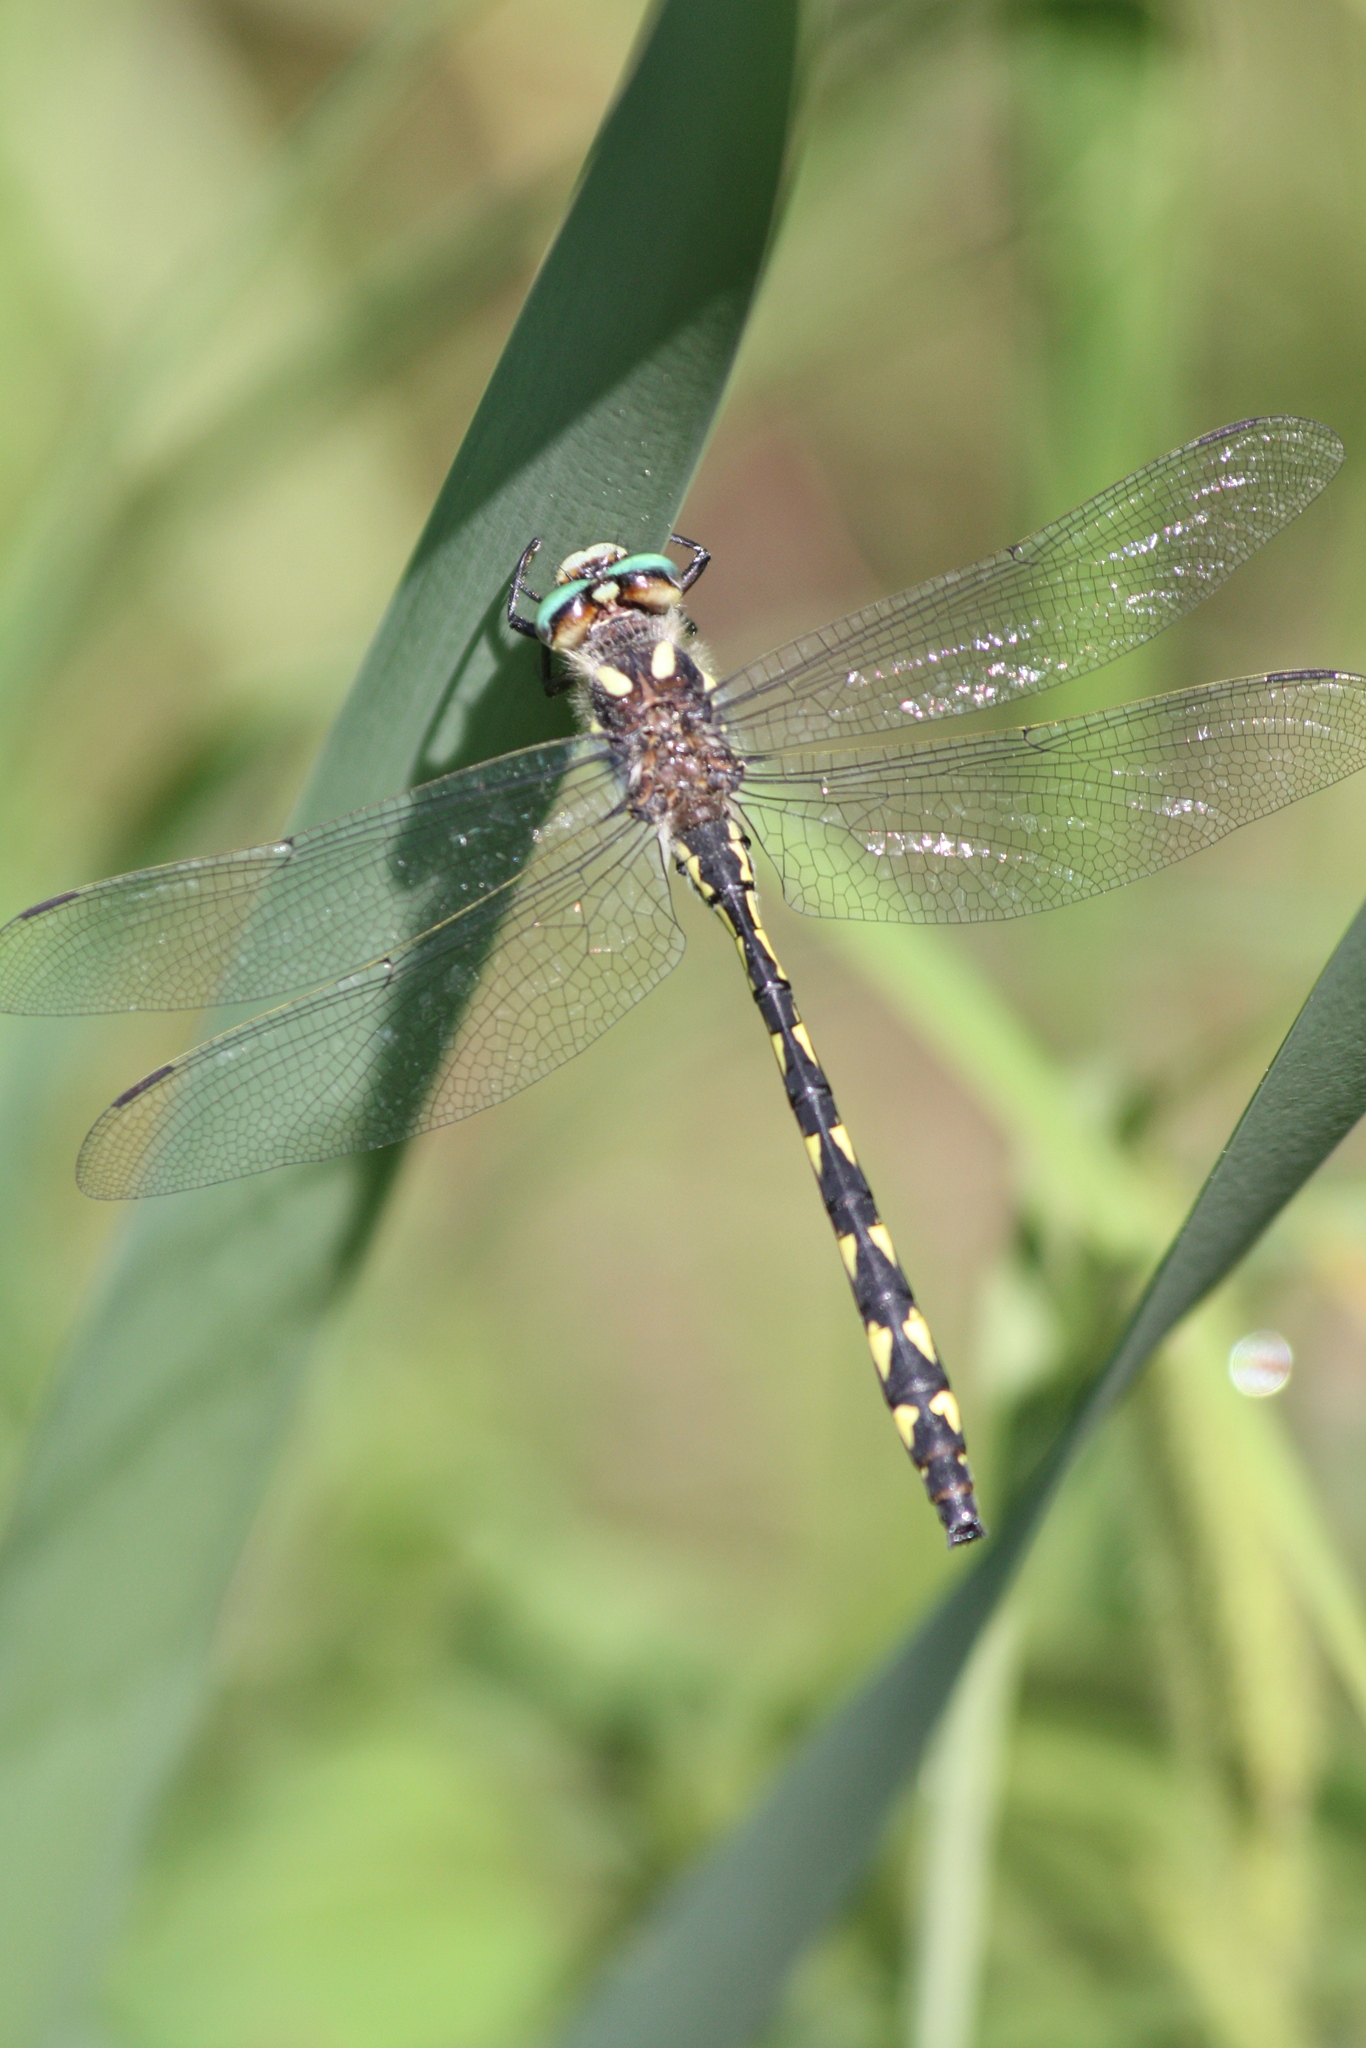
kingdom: Animalia
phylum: Arthropoda
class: Insecta
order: Odonata
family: Cordulegastridae
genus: Cordulegaster
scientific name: Cordulegaster diastatops
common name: Delta-spotted spiketail
